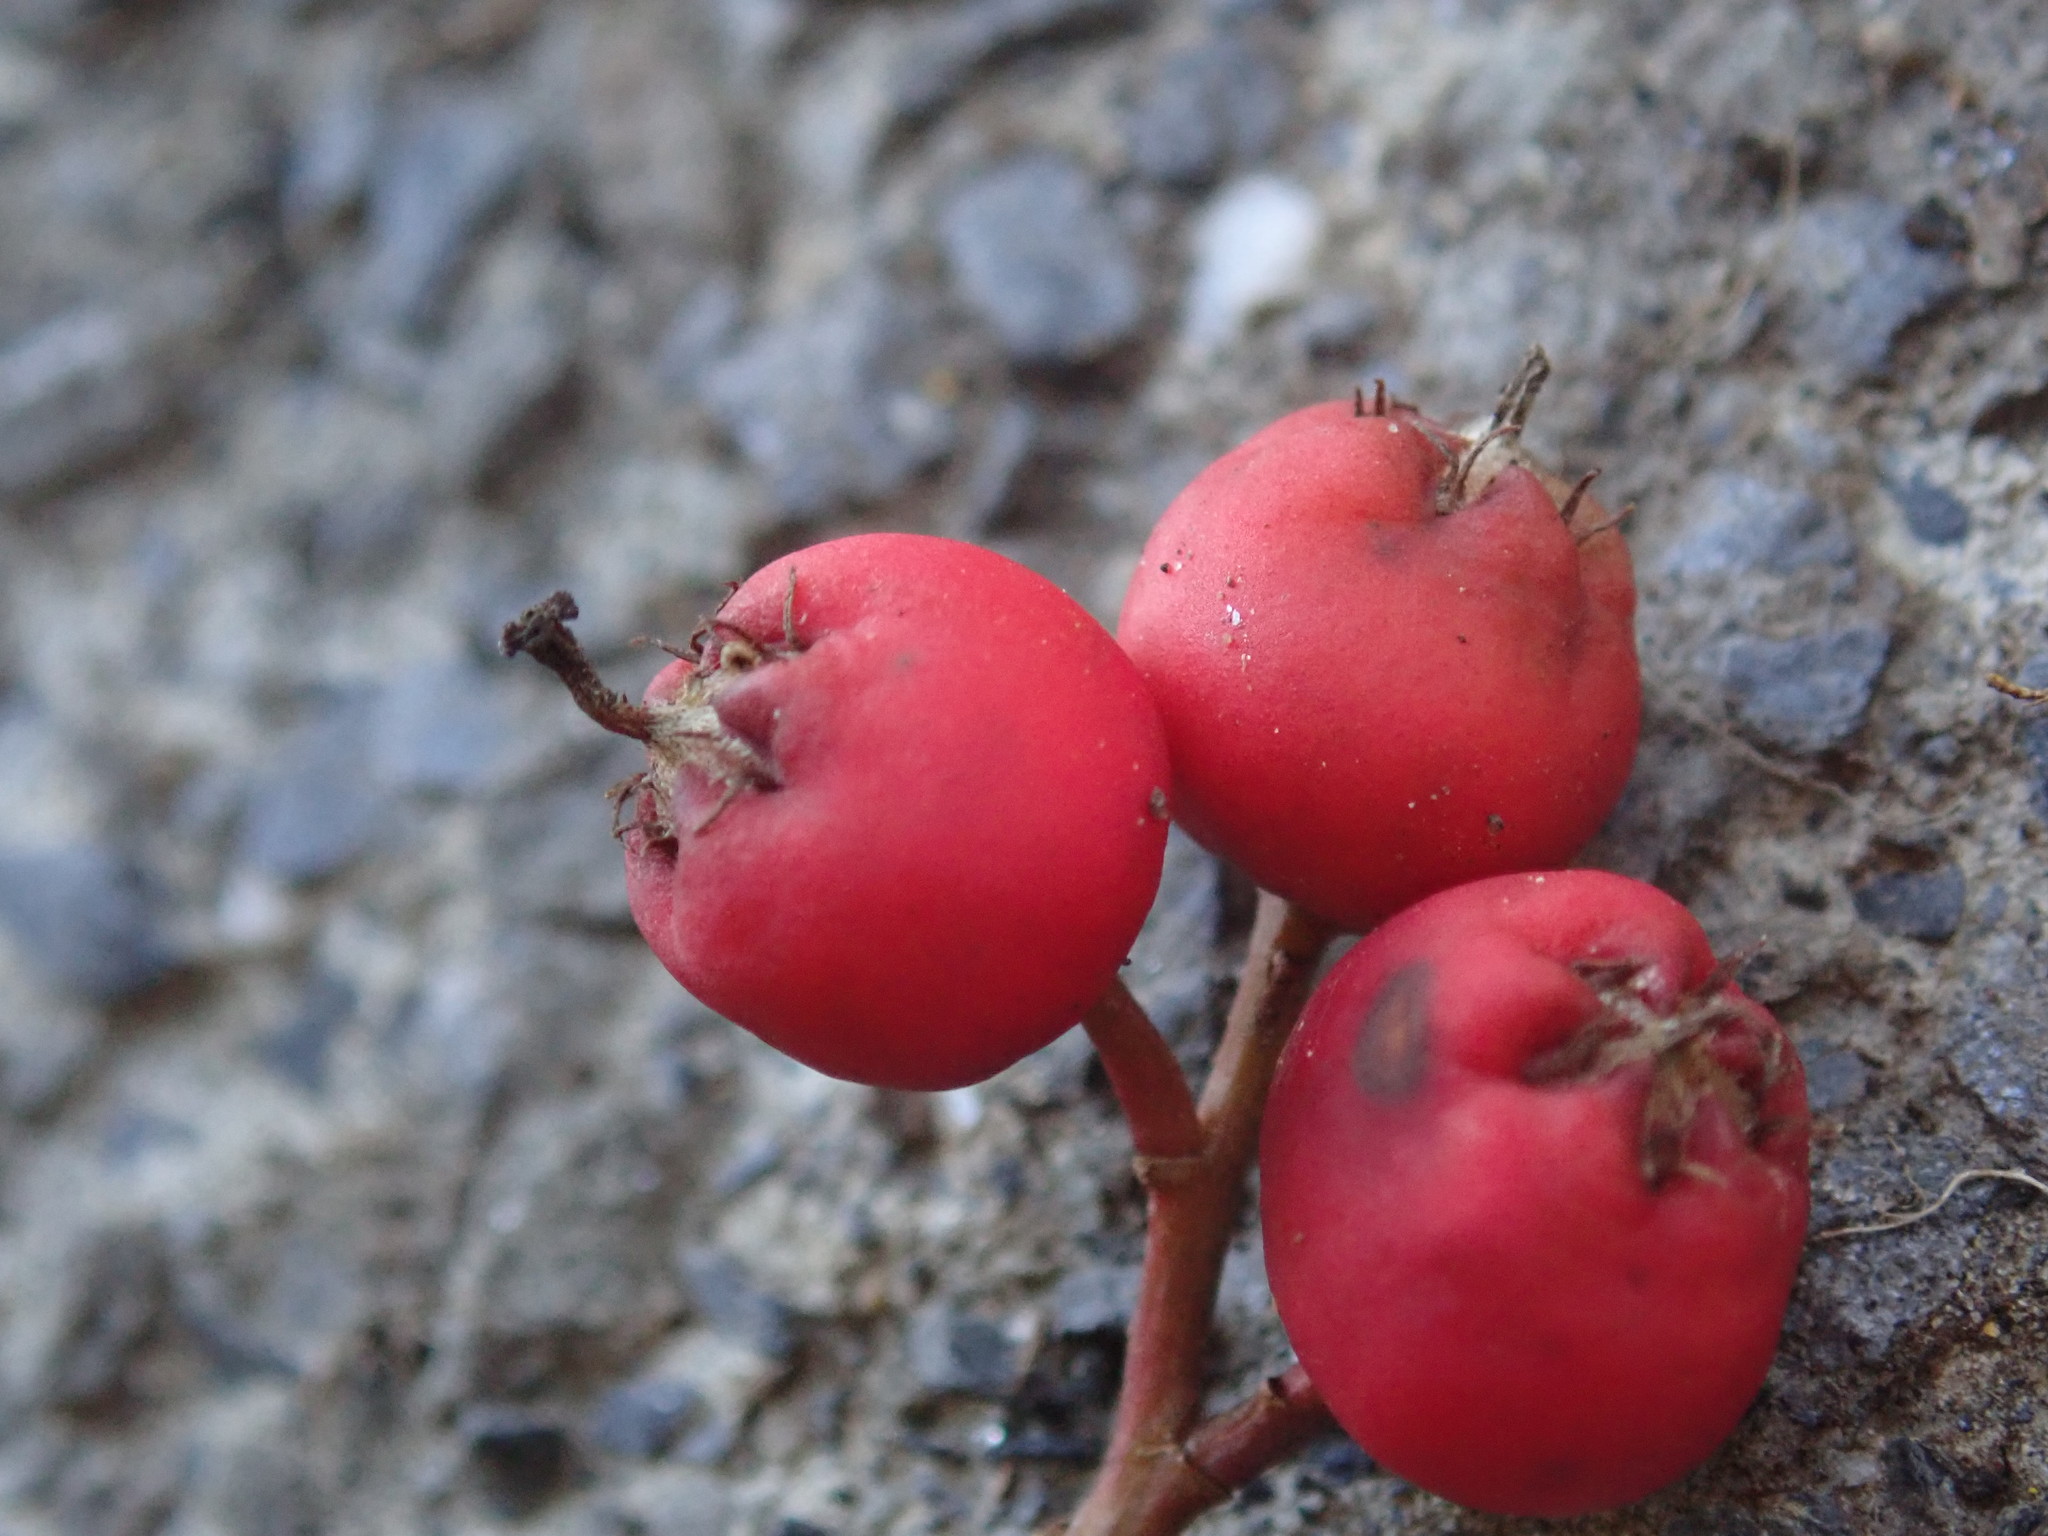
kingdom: Plantae
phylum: Tracheophyta
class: Magnoliopsida
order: Rosales
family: Rosaceae
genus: Photinia
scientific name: Photinia serratifolia
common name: Taiwanese photinia
